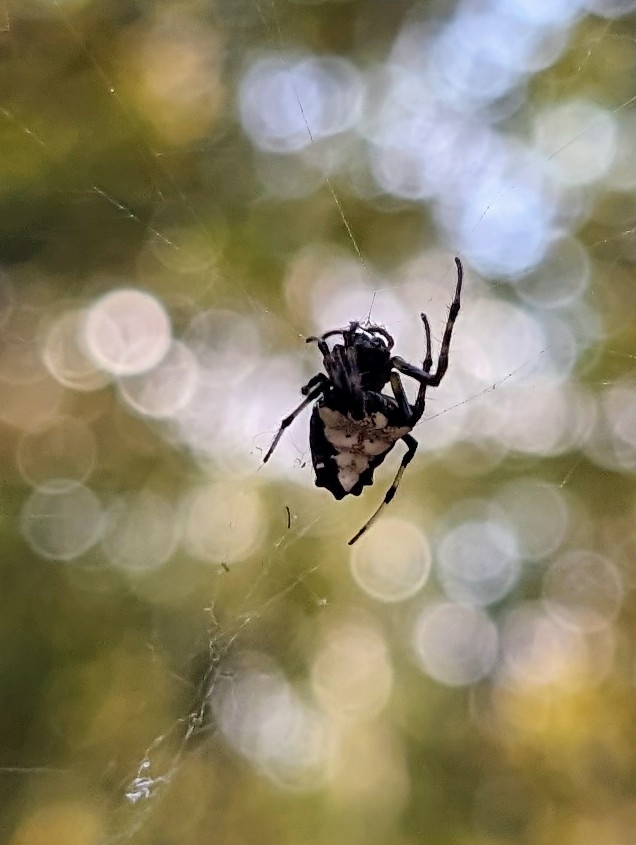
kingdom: Animalia
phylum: Arthropoda
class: Arachnida
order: Araneae
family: Araneidae
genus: Verrucosa
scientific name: Verrucosa arenata
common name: Orb weavers
